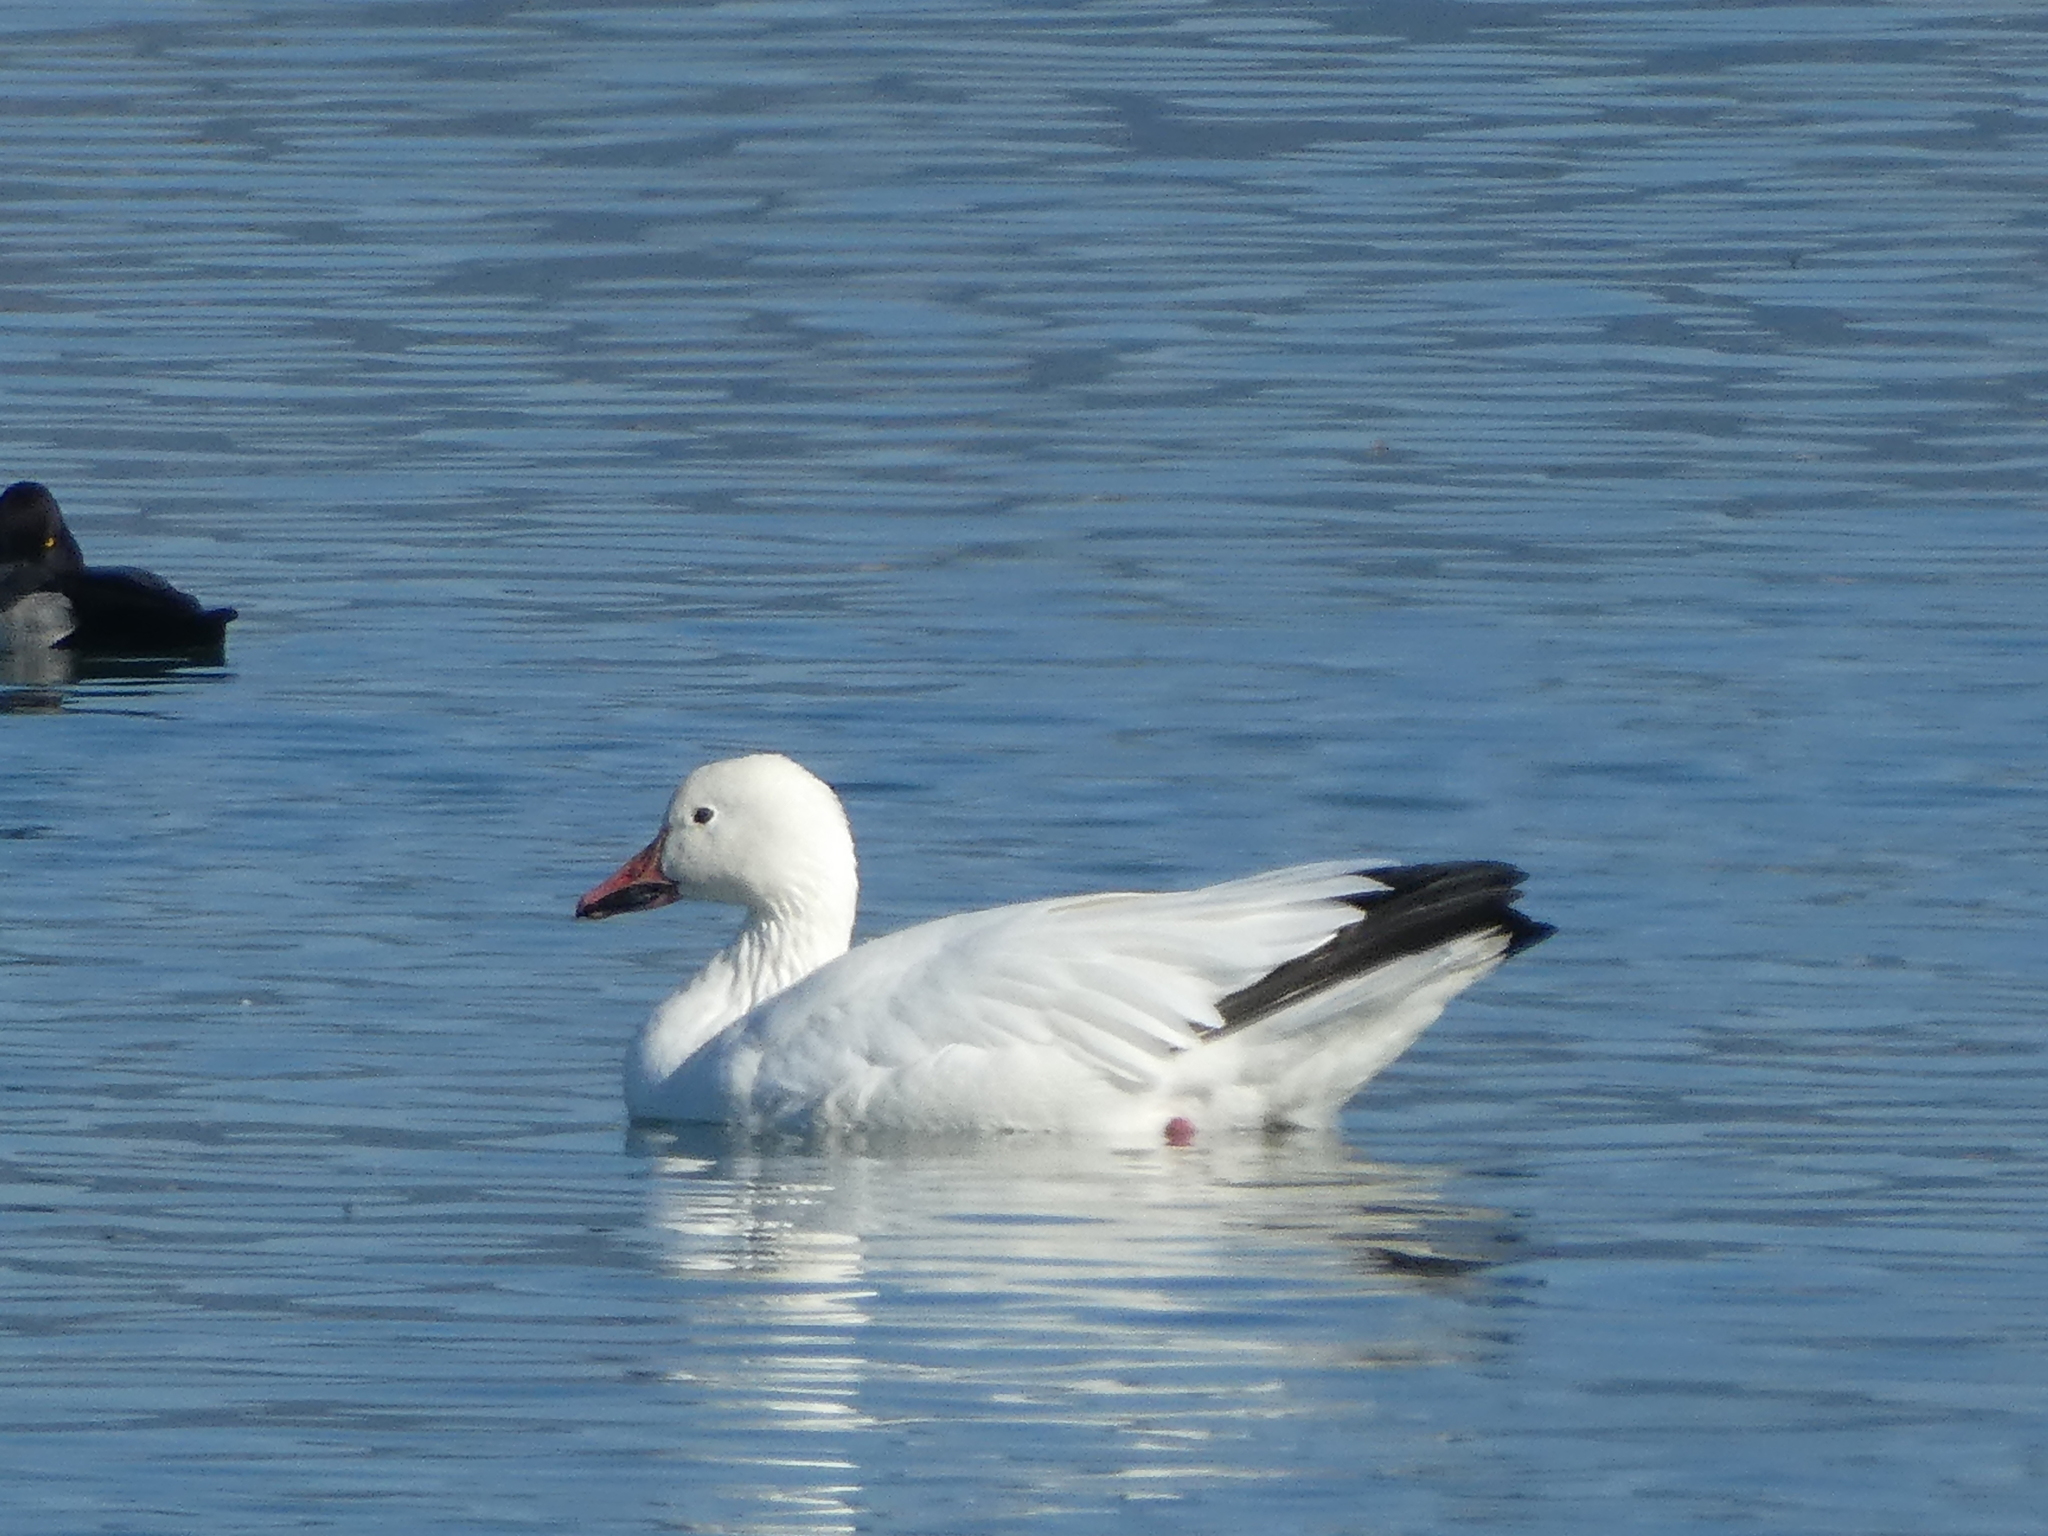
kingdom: Animalia
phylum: Chordata
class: Aves
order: Anseriformes
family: Anatidae
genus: Anser
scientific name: Anser caerulescens
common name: Snow goose
